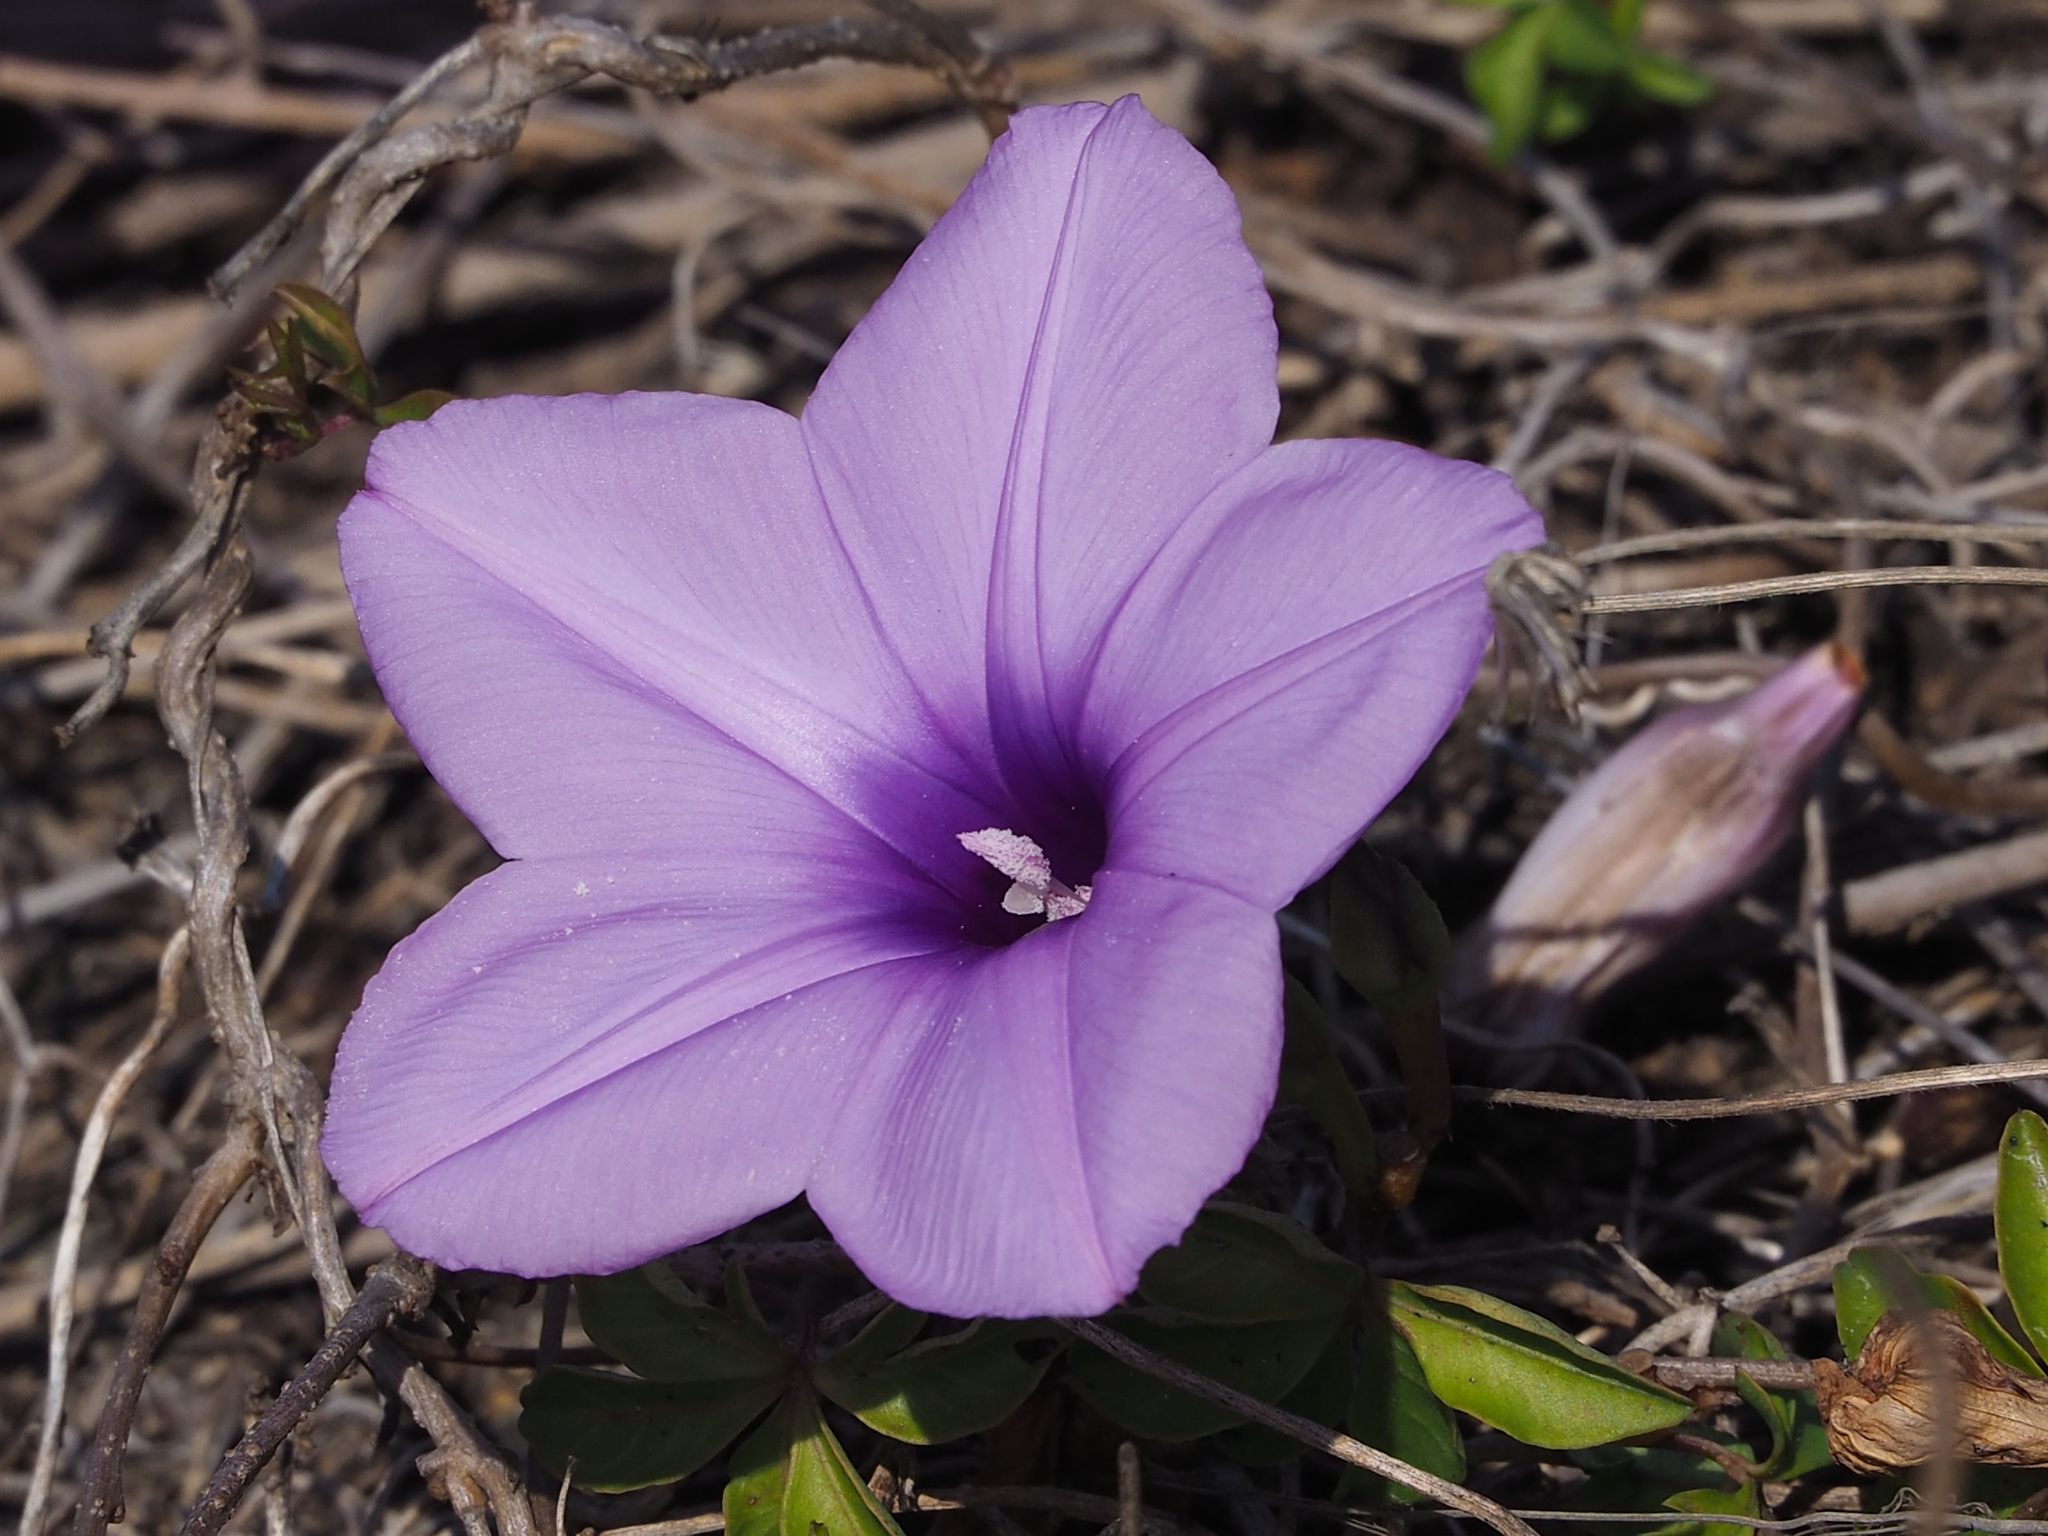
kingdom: Plantae
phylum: Tracheophyta
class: Magnoliopsida
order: Solanales
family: Convolvulaceae
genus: Ipomoea
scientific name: Ipomoea cairica
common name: Mile a minute vine
